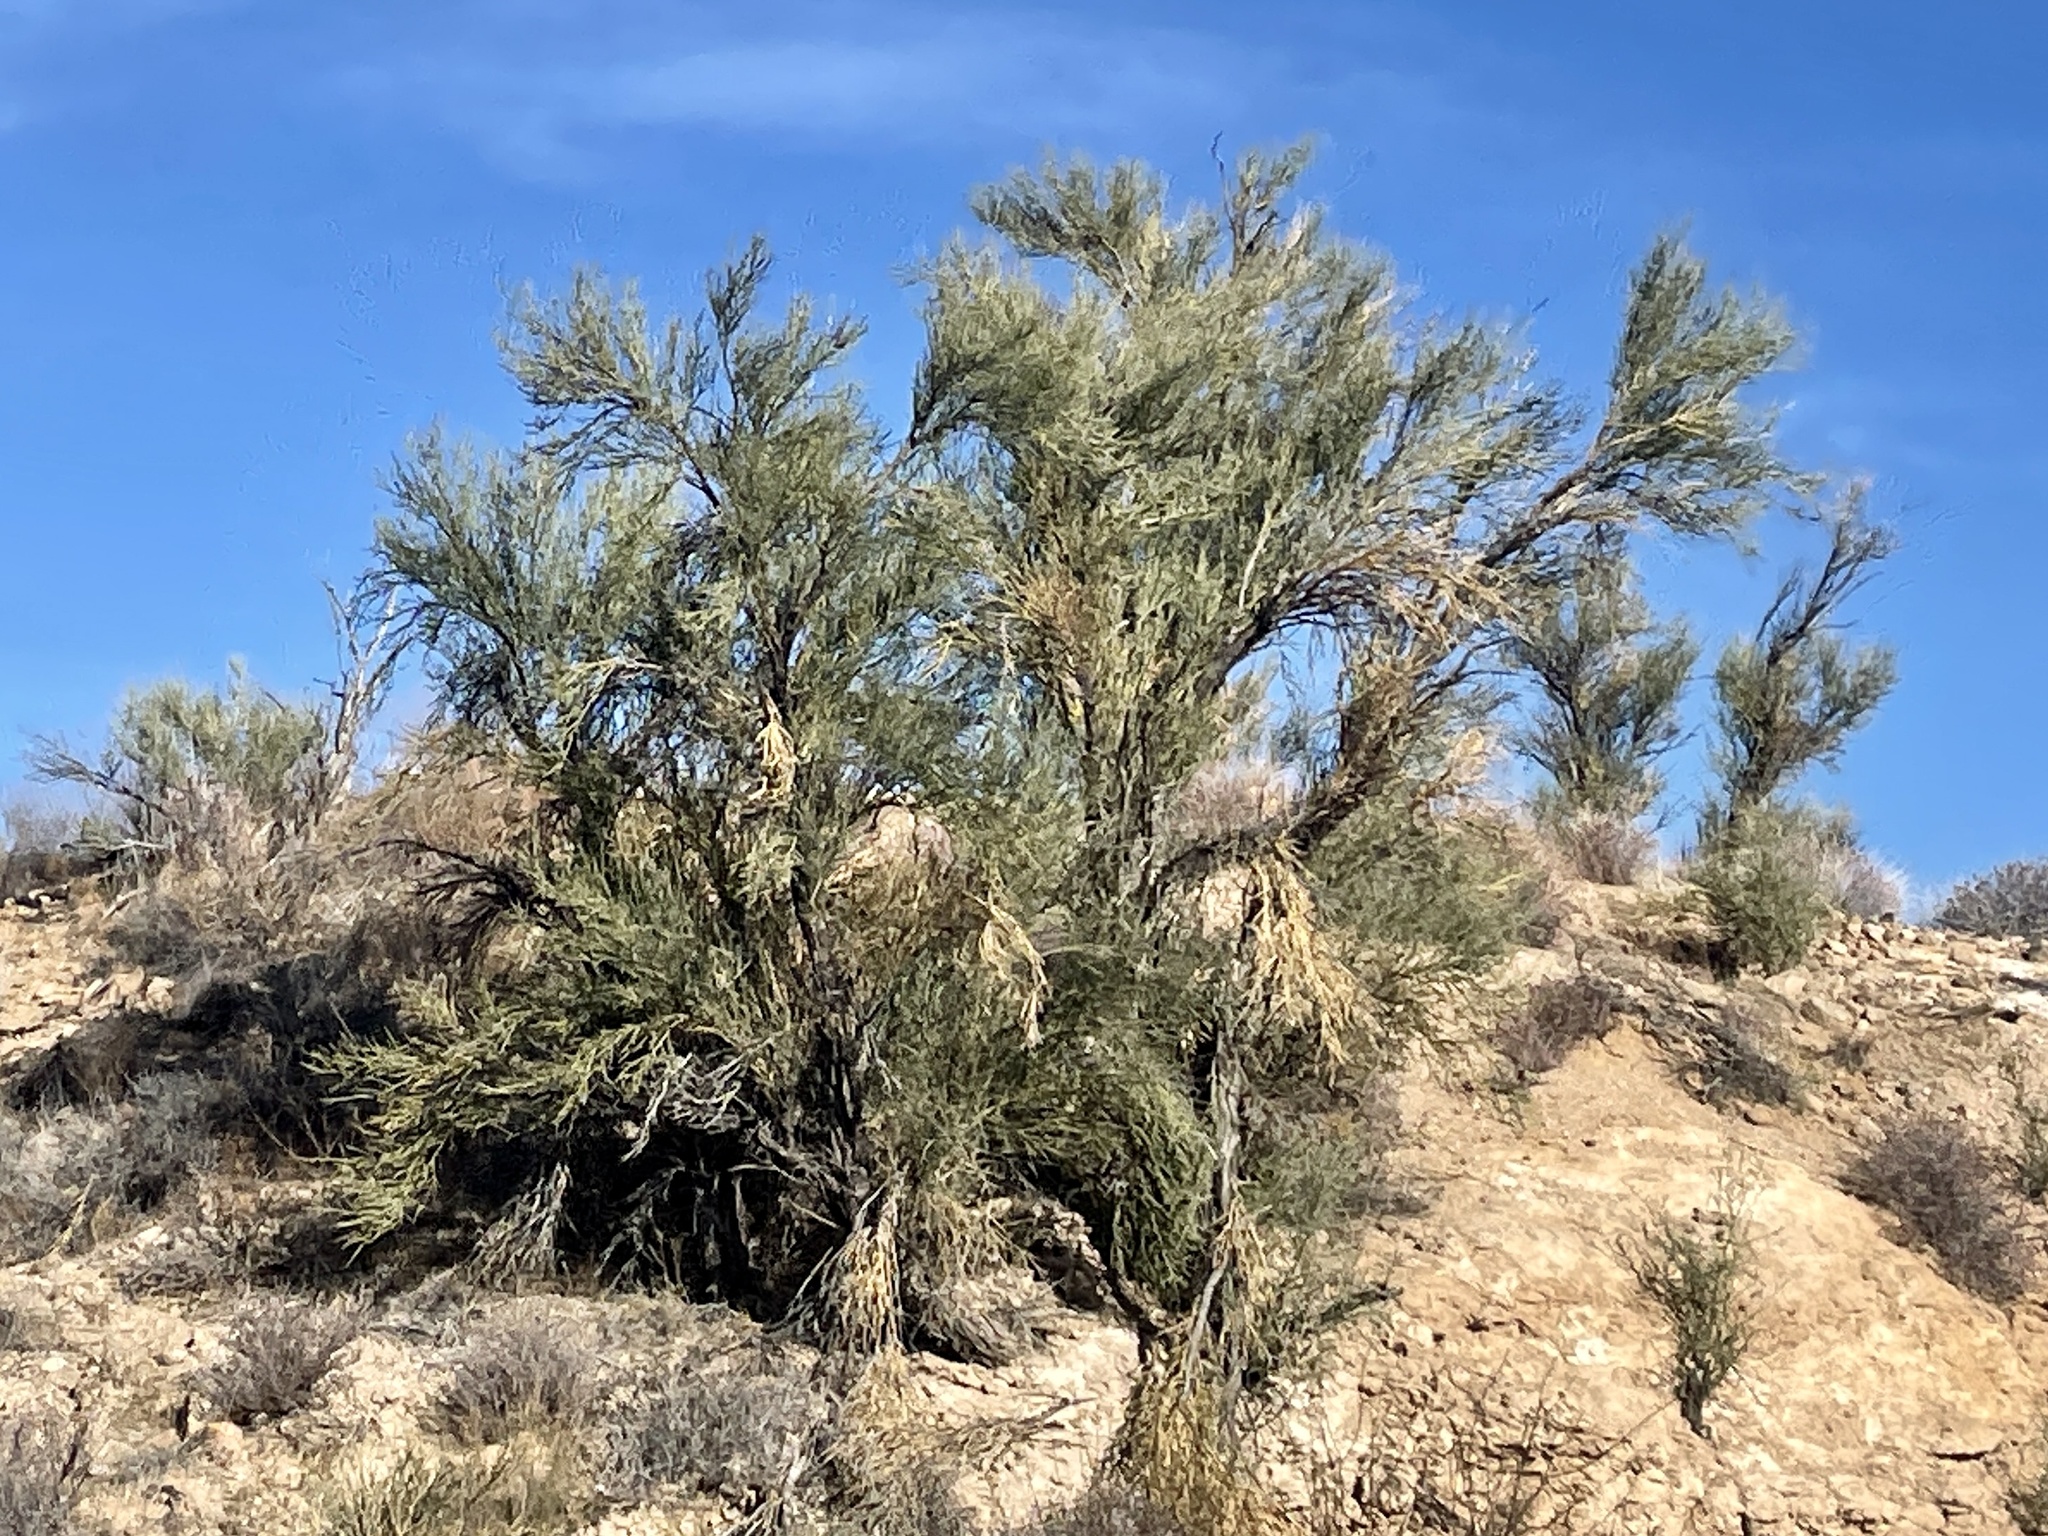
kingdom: Plantae
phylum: Tracheophyta
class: Magnoliopsida
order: Celastrales
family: Celastraceae
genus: Canotia
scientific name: Canotia holacantha
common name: Crucifixion thorns
